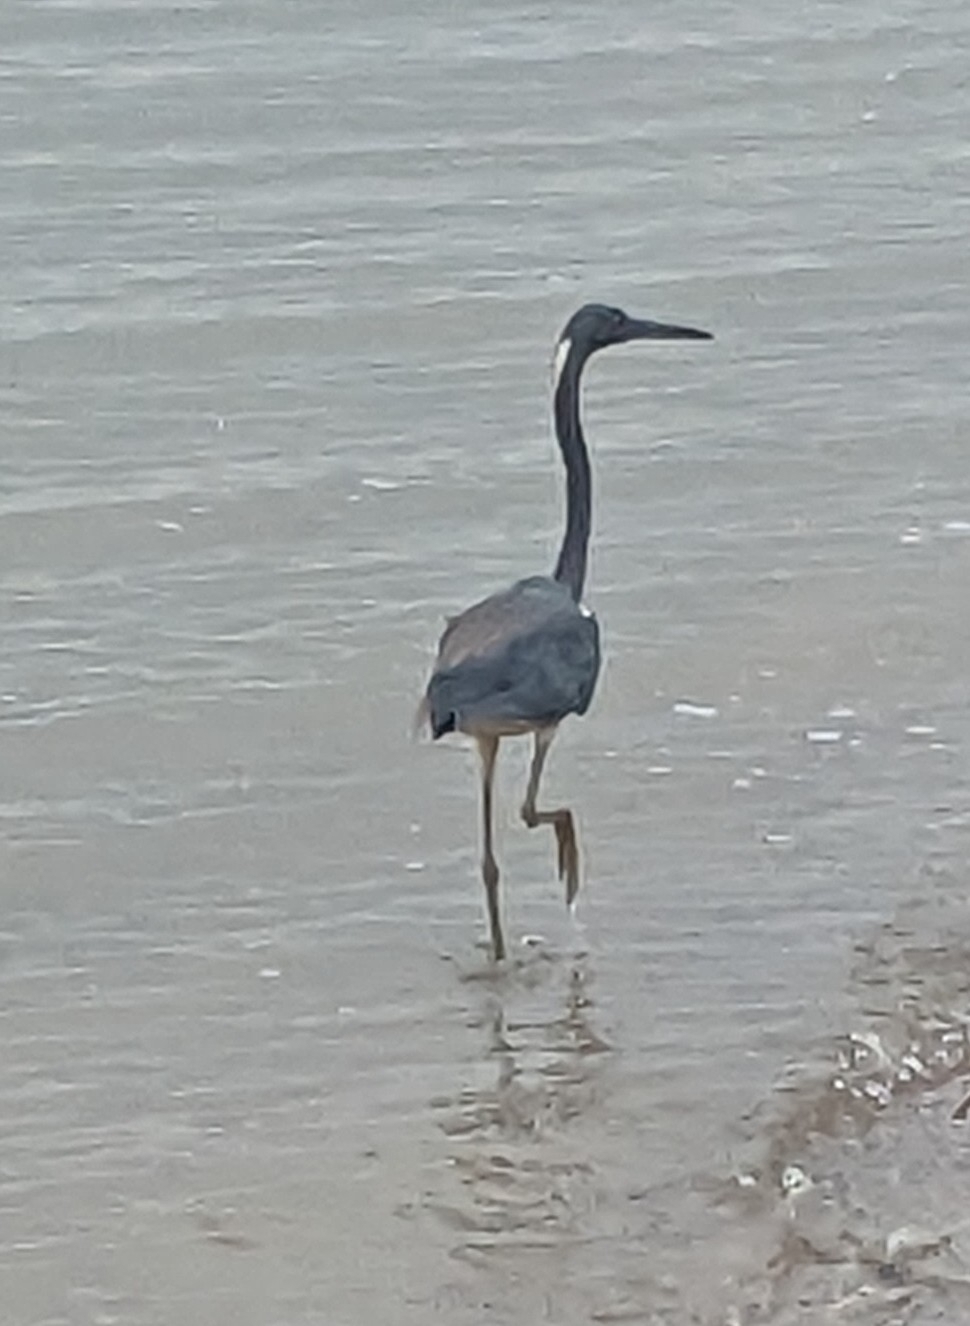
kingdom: Animalia
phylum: Chordata
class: Aves
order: Pelecaniformes
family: Ardeidae
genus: Egretta
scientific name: Egretta tricolor
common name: Tricolored heron
